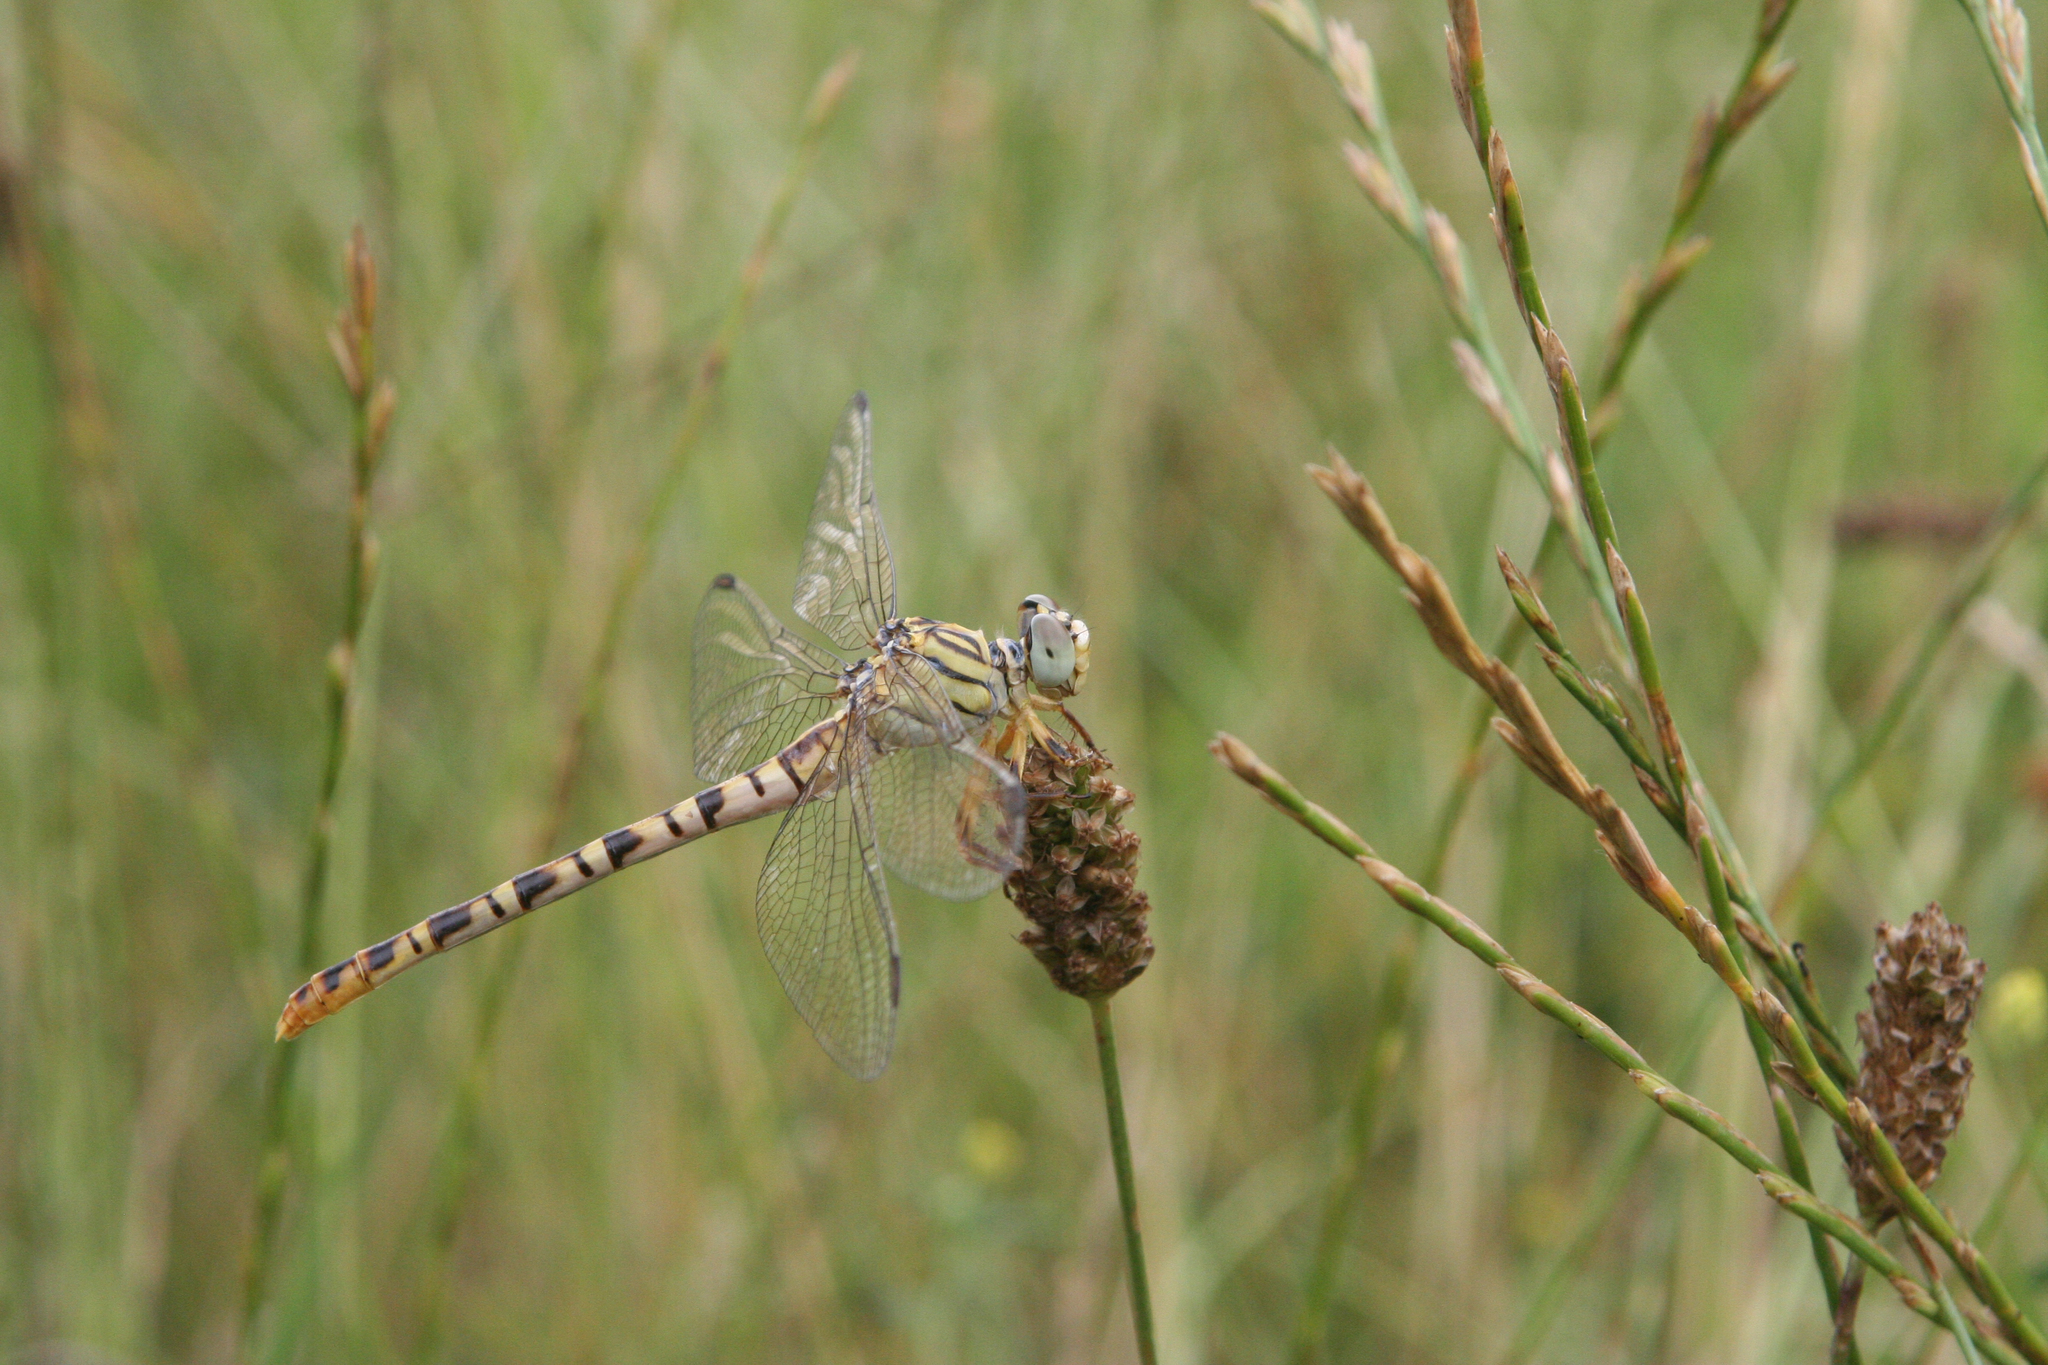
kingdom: Animalia
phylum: Arthropoda
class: Insecta
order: Odonata
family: Gomphidae
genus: Onychogomphus
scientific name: Onychogomphus flexuosus
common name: Waved pincertail
